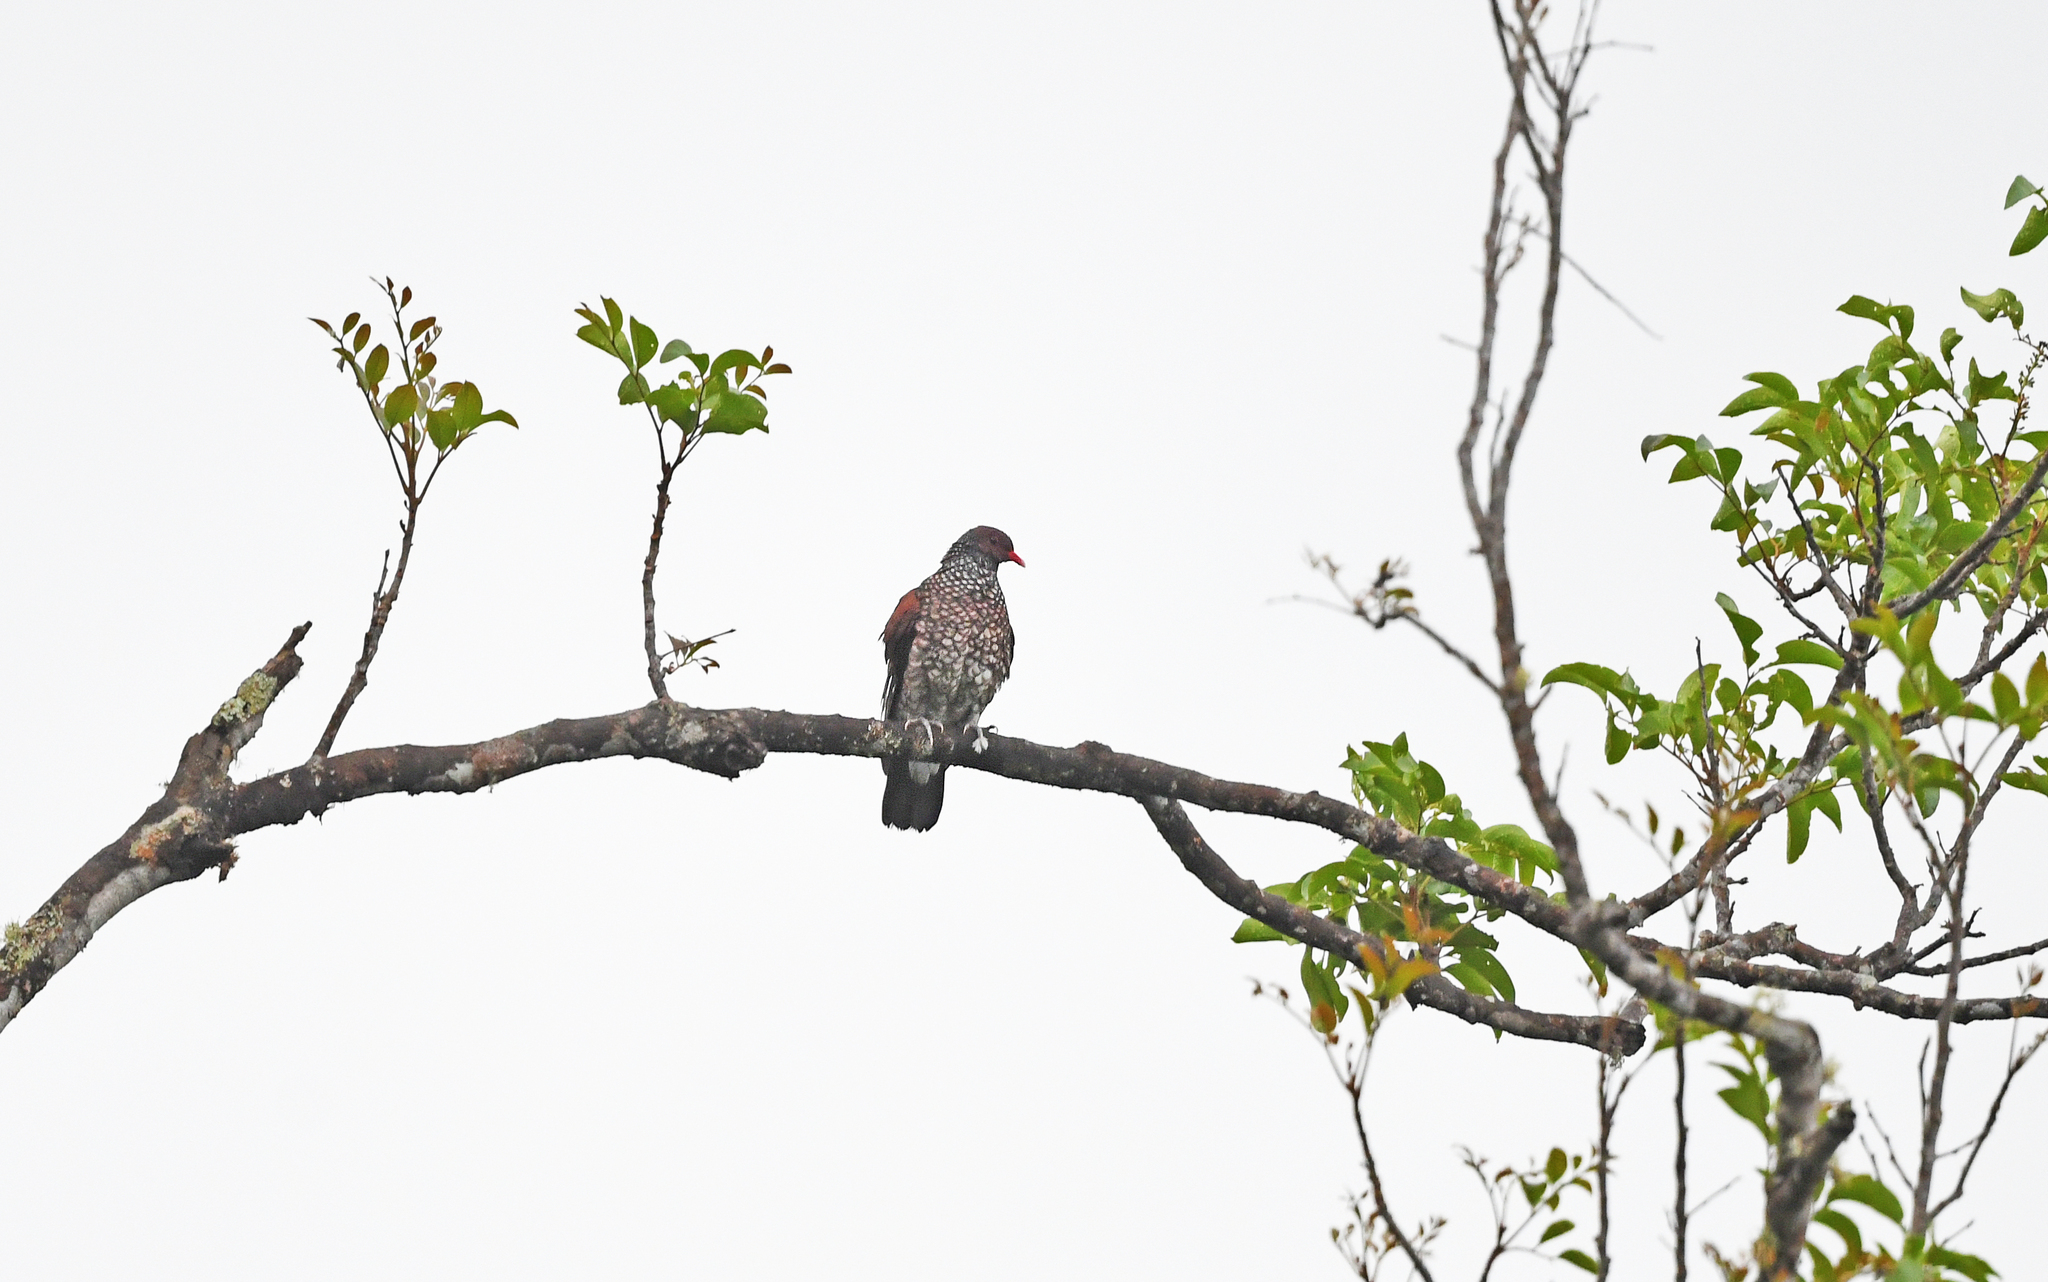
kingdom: Animalia
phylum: Chordata
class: Aves
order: Columbiformes
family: Columbidae
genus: Patagioenas
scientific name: Patagioenas speciosa
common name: Scaled pigeon
